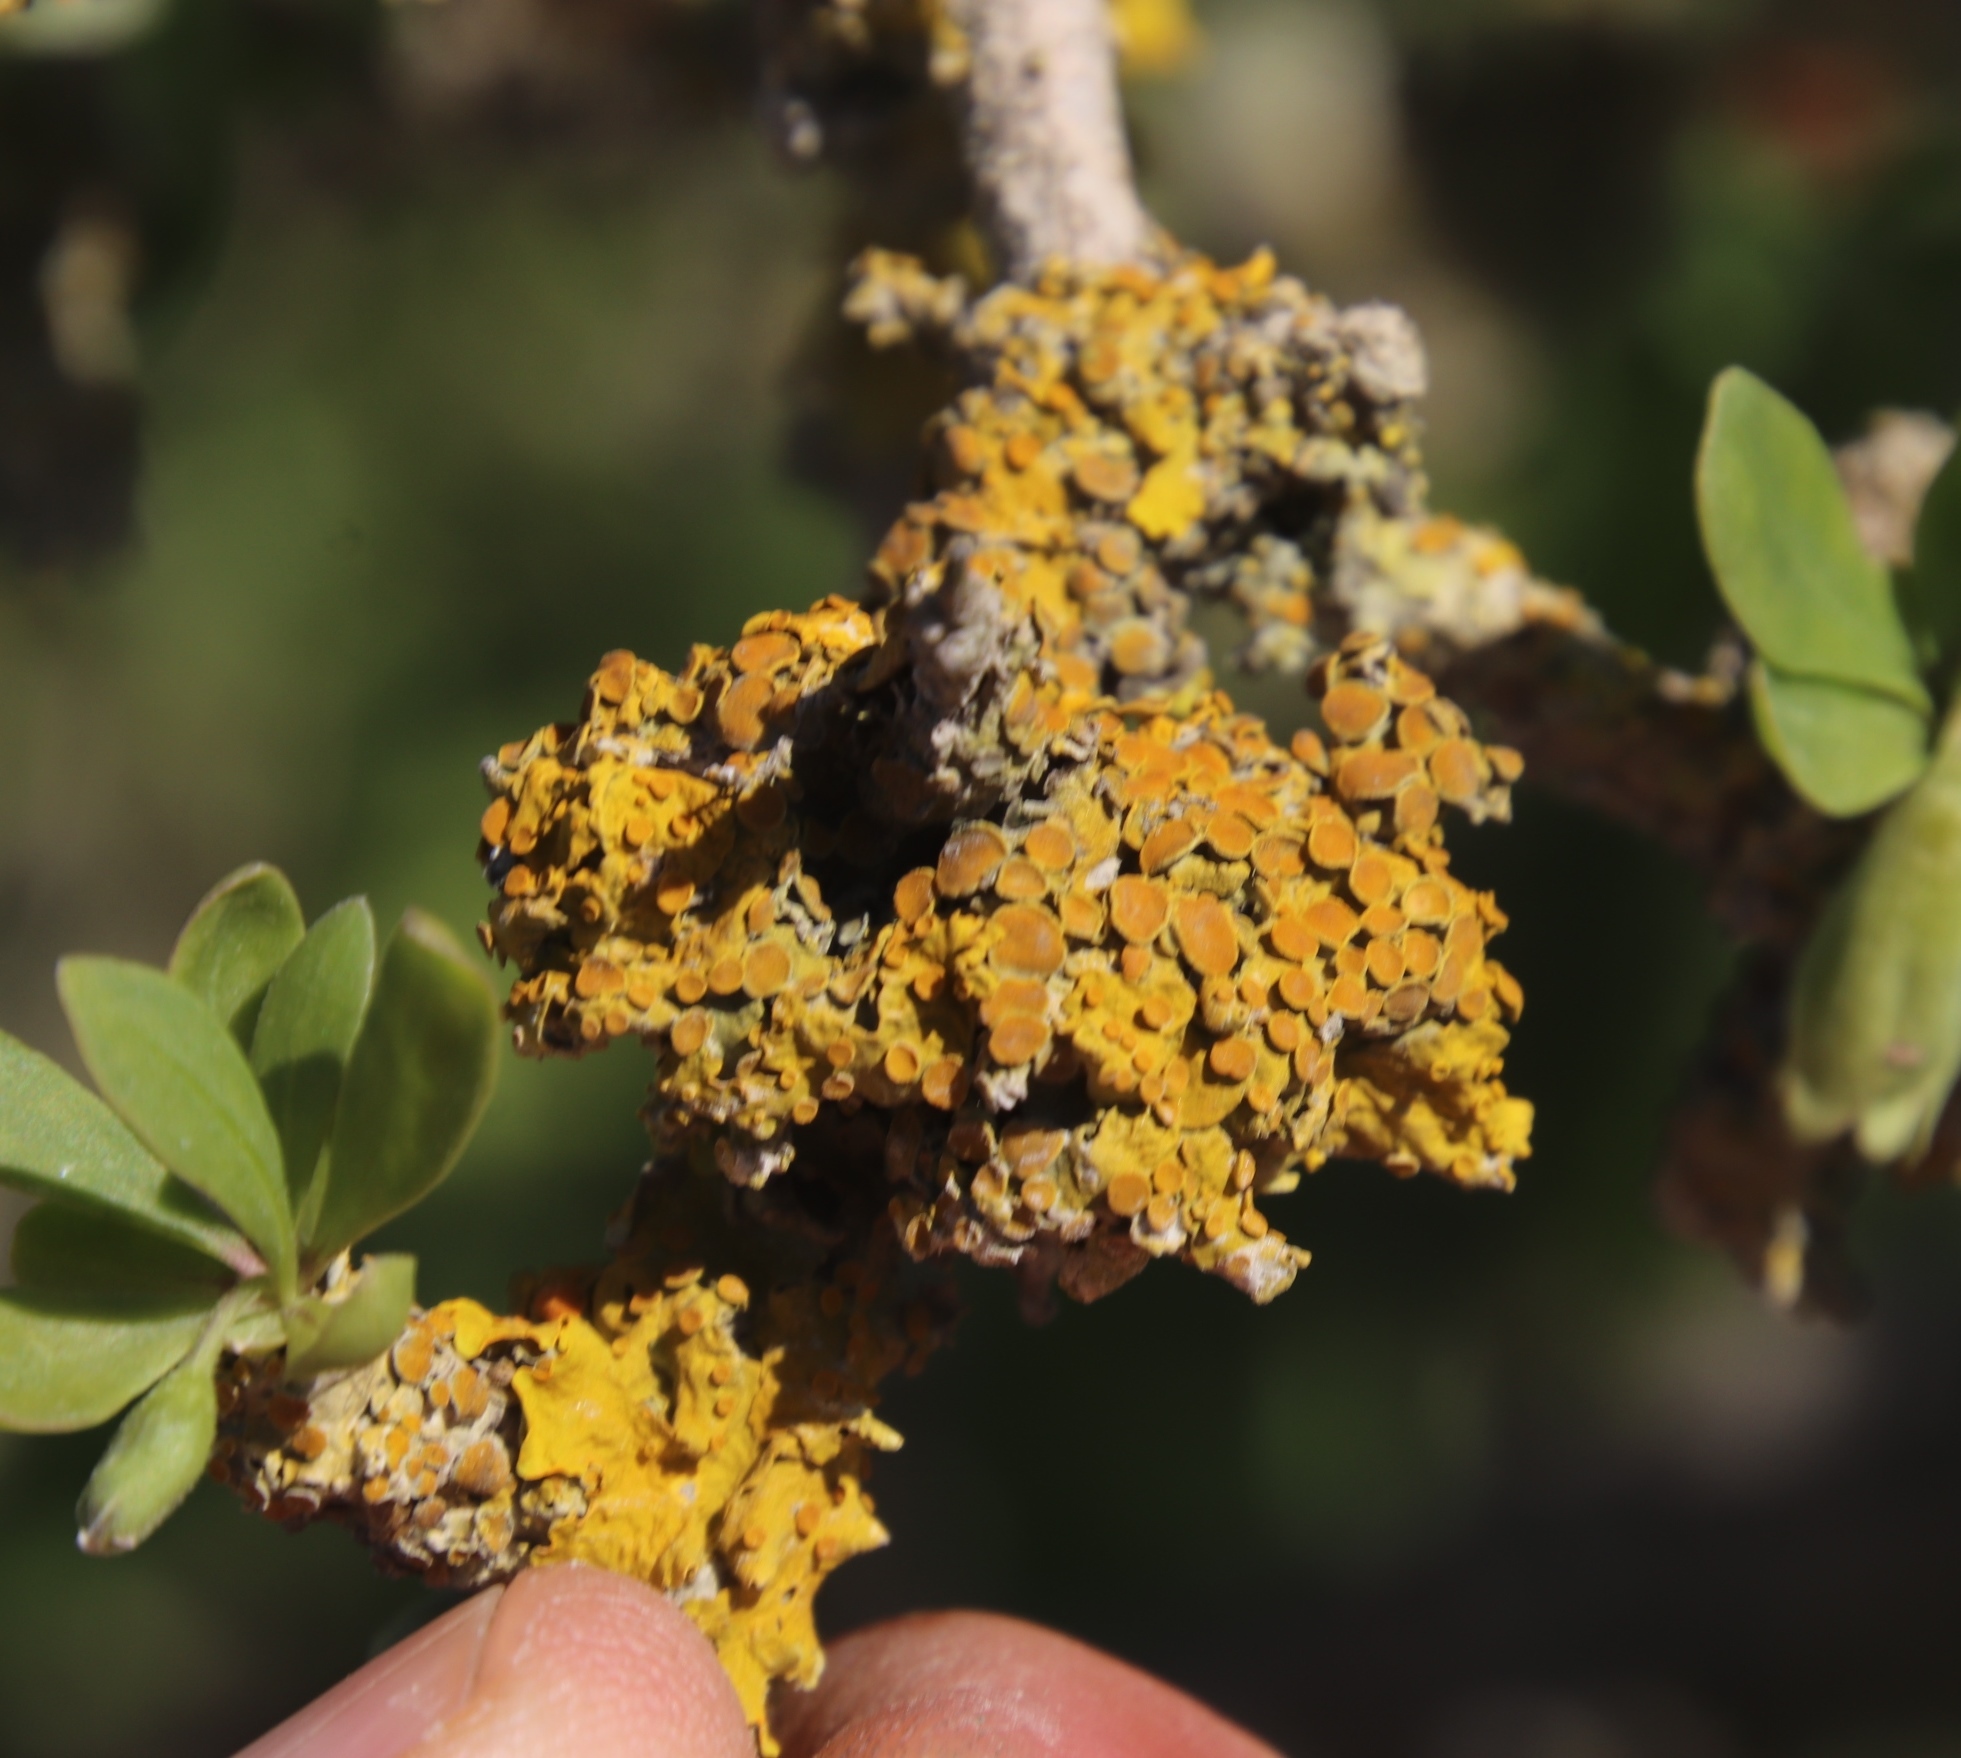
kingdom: Fungi
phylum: Ascomycota
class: Lecanoromycetes
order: Teloschistales
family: Teloschistaceae
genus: Xanthoria
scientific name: Xanthoria parietina
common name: Common orange lichen
